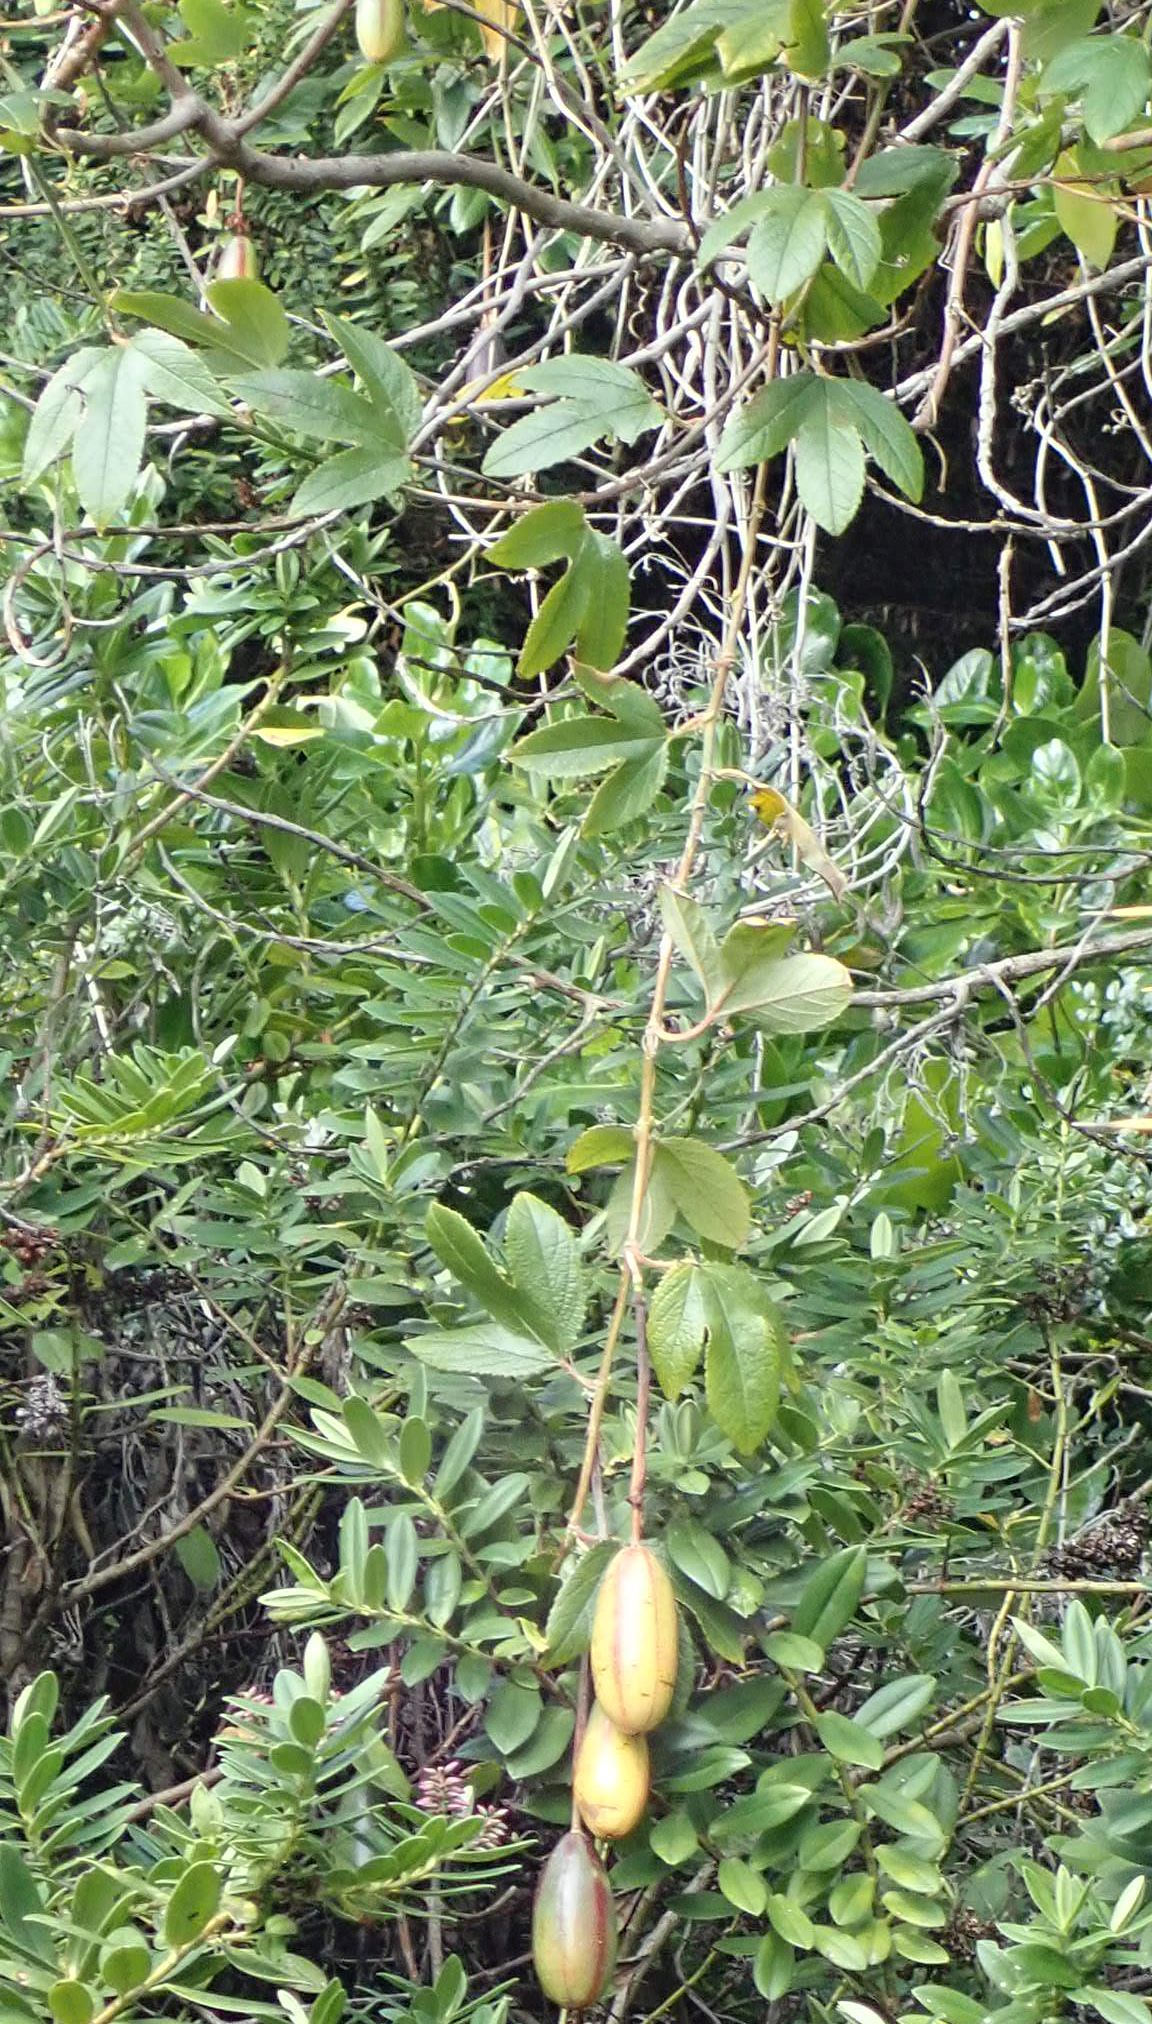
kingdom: Plantae
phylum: Tracheophyta
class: Magnoliopsida
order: Malpighiales
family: Passifloraceae
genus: Passiflora
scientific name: Passiflora tripartita
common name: Banana poka
